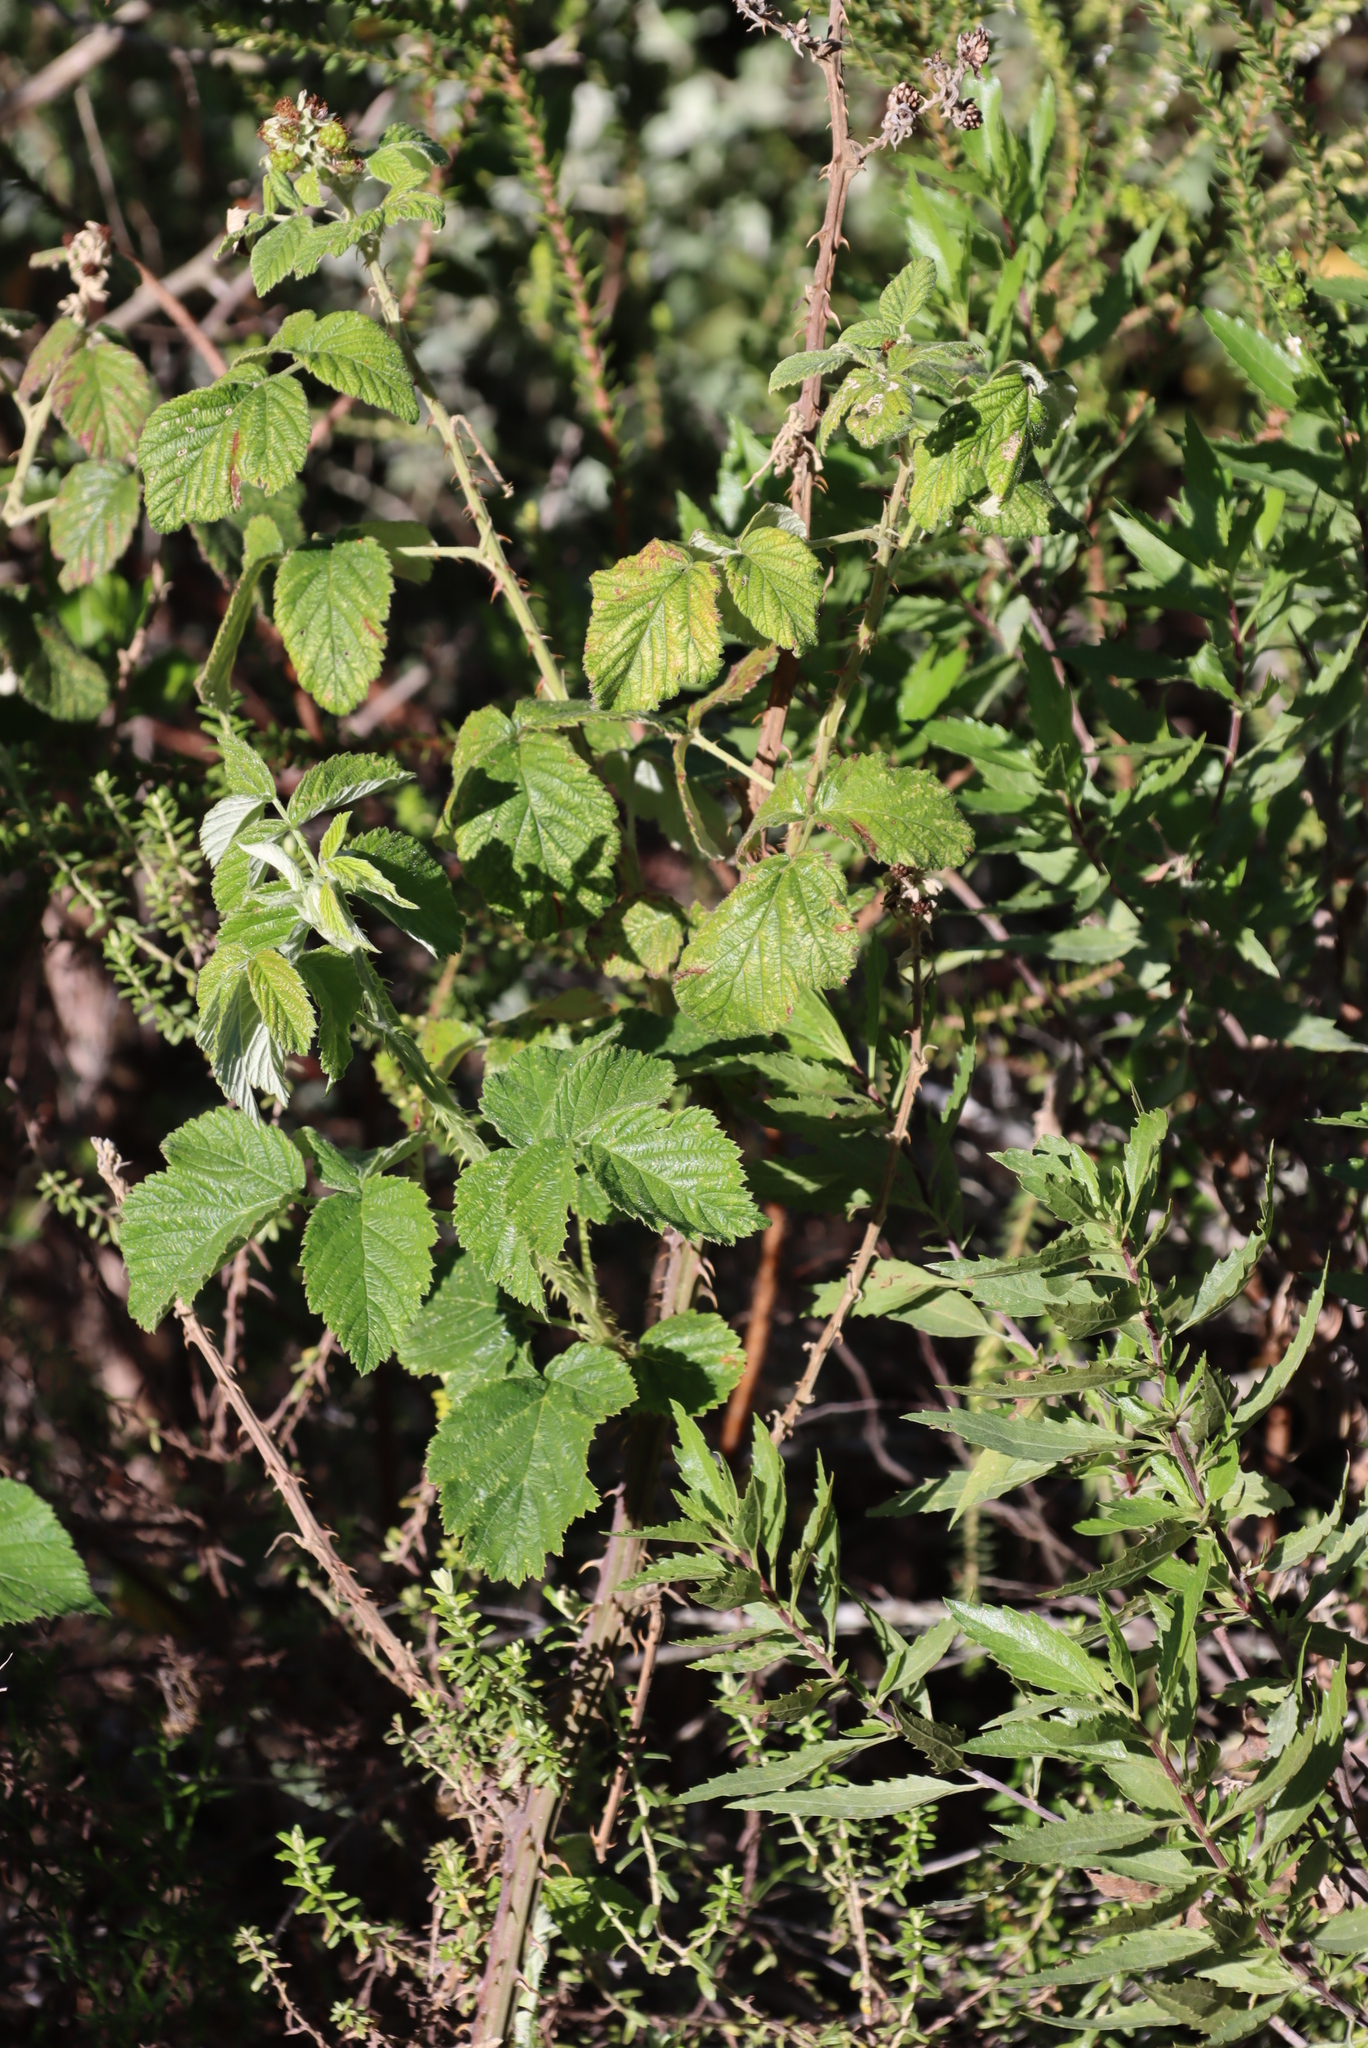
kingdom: Plantae
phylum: Tracheophyta
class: Magnoliopsida
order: Rosales
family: Rosaceae
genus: Rubus
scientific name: Rubus rigidus
